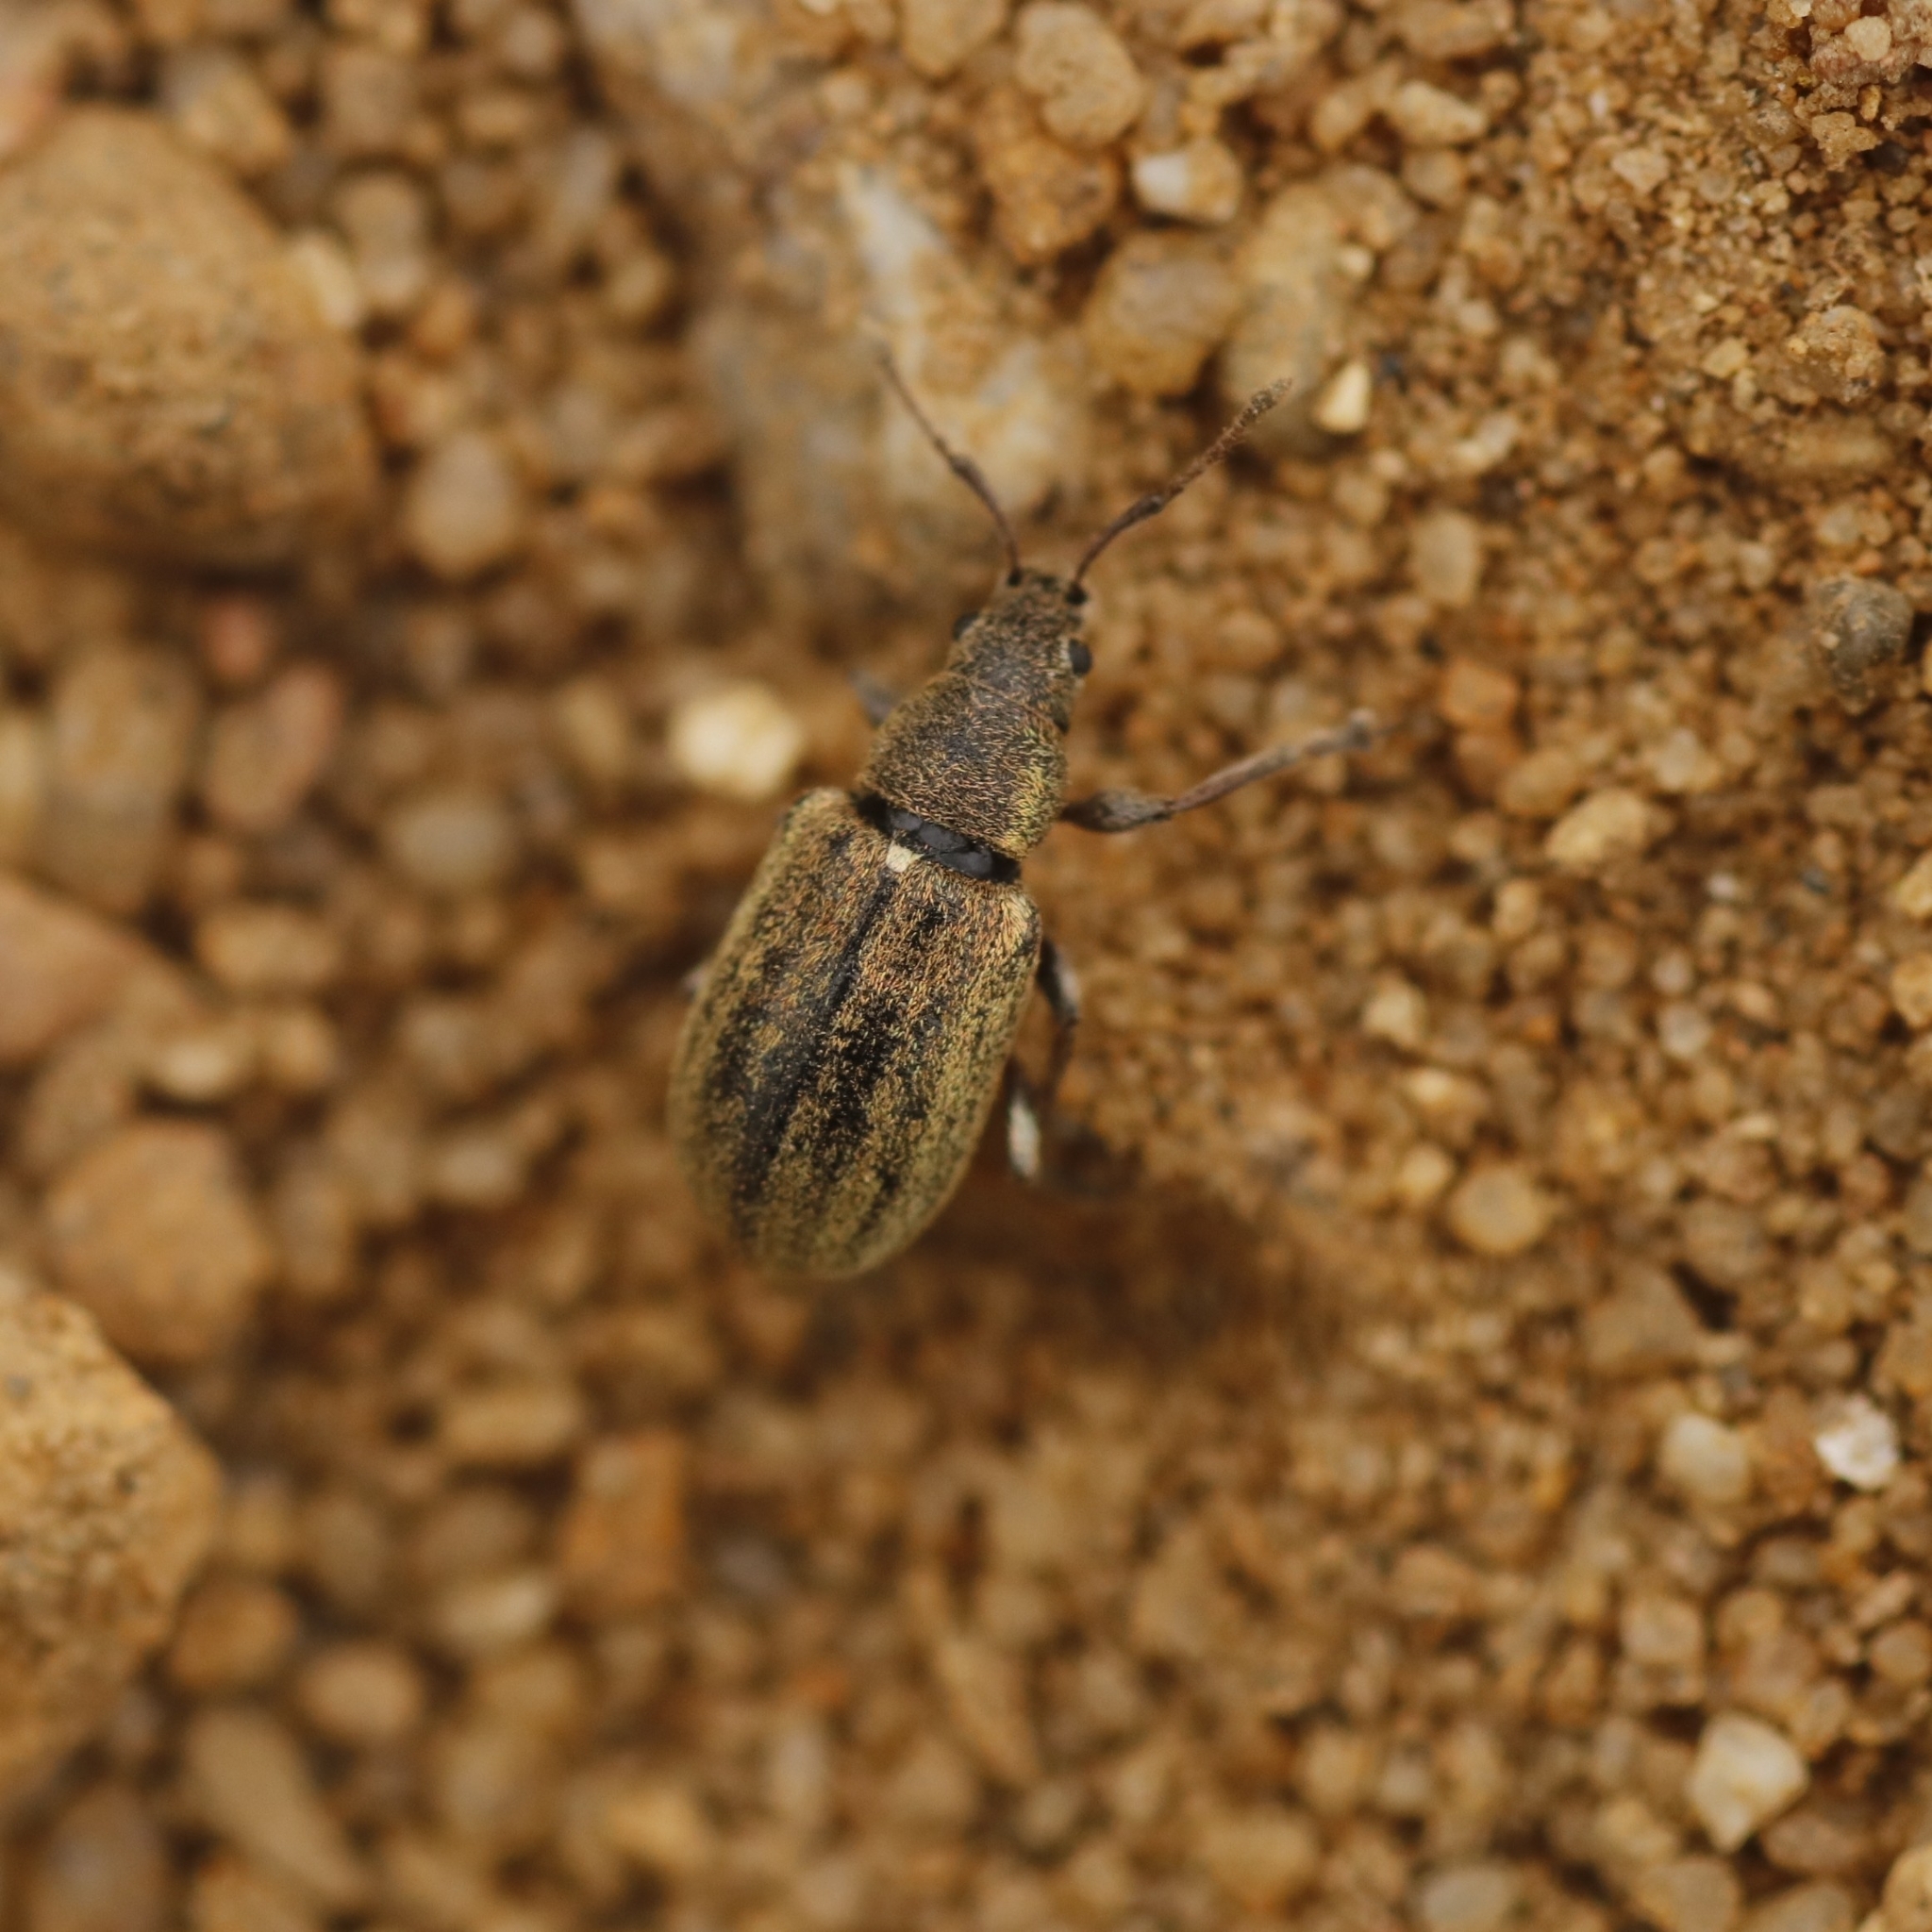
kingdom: Animalia
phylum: Arthropoda
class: Insecta
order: Coleoptera
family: Curculionidae
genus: Phyllobius
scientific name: Phyllobius pyri
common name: Common leaf weevil
